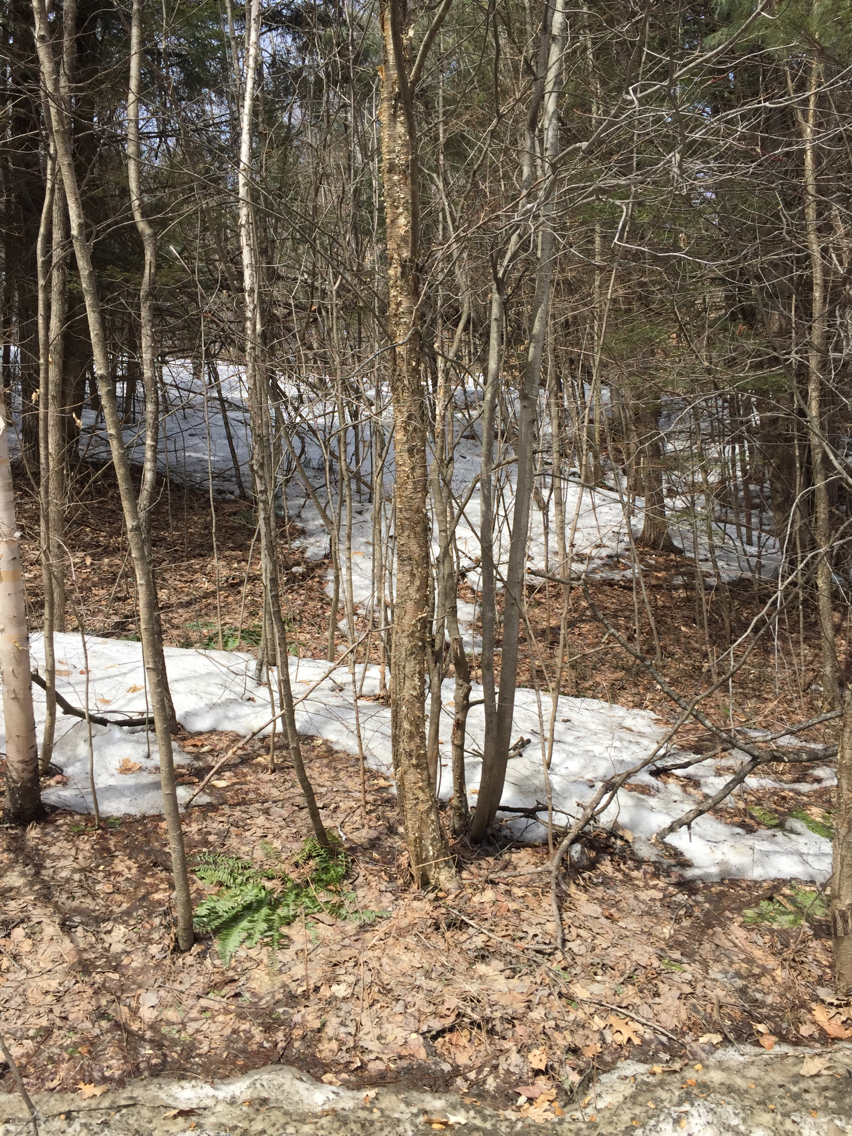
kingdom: Plantae
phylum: Tracheophyta
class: Magnoliopsida
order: Fagales
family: Betulaceae
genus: Betula
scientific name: Betula alleghaniensis
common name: Yellow birch
